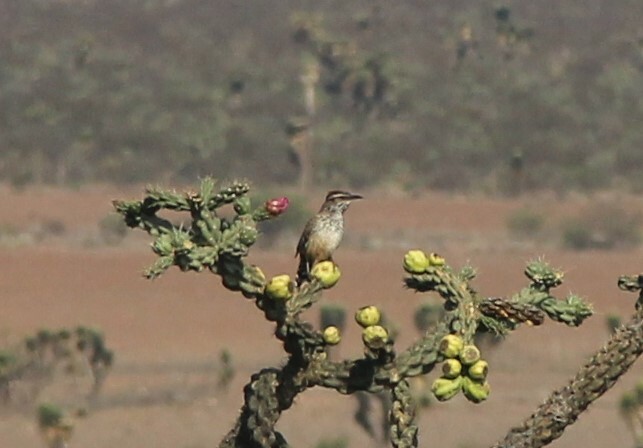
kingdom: Animalia
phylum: Chordata
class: Aves
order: Passeriformes
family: Troglodytidae
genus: Campylorhynchus
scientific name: Campylorhynchus brunneicapillus
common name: Cactus wren
